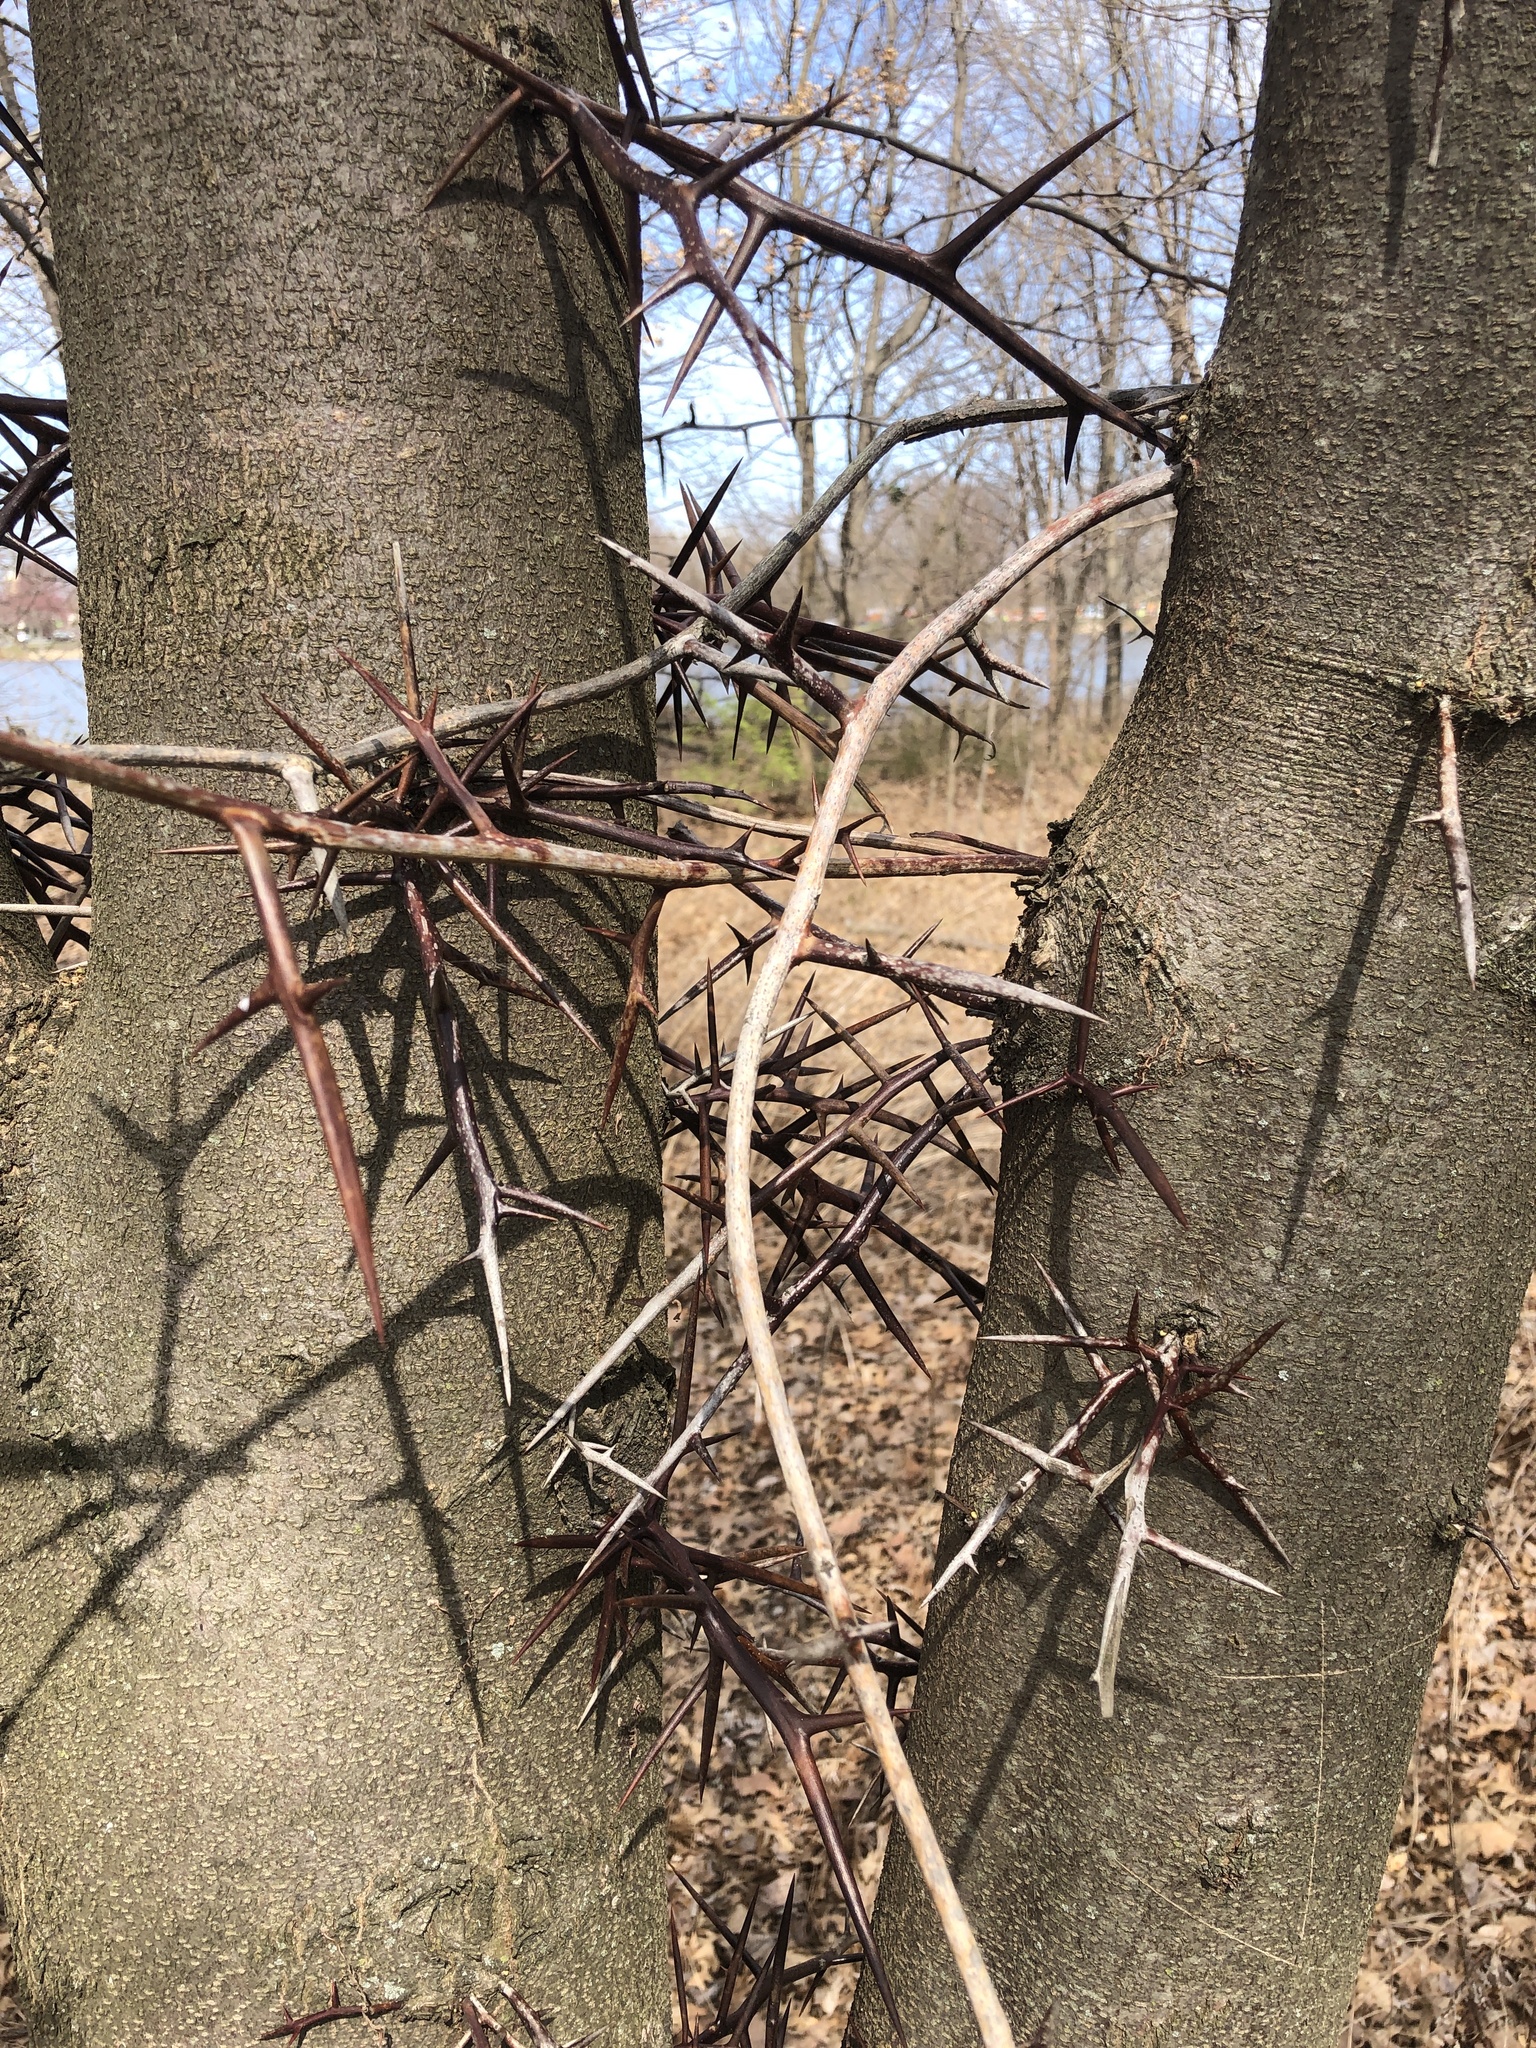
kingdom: Plantae
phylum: Tracheophyta
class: Magnoliopsida
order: Fabales
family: Fabaceae
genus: Gleditsia
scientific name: Gleditsia triacanthos
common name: Common honeylocust
